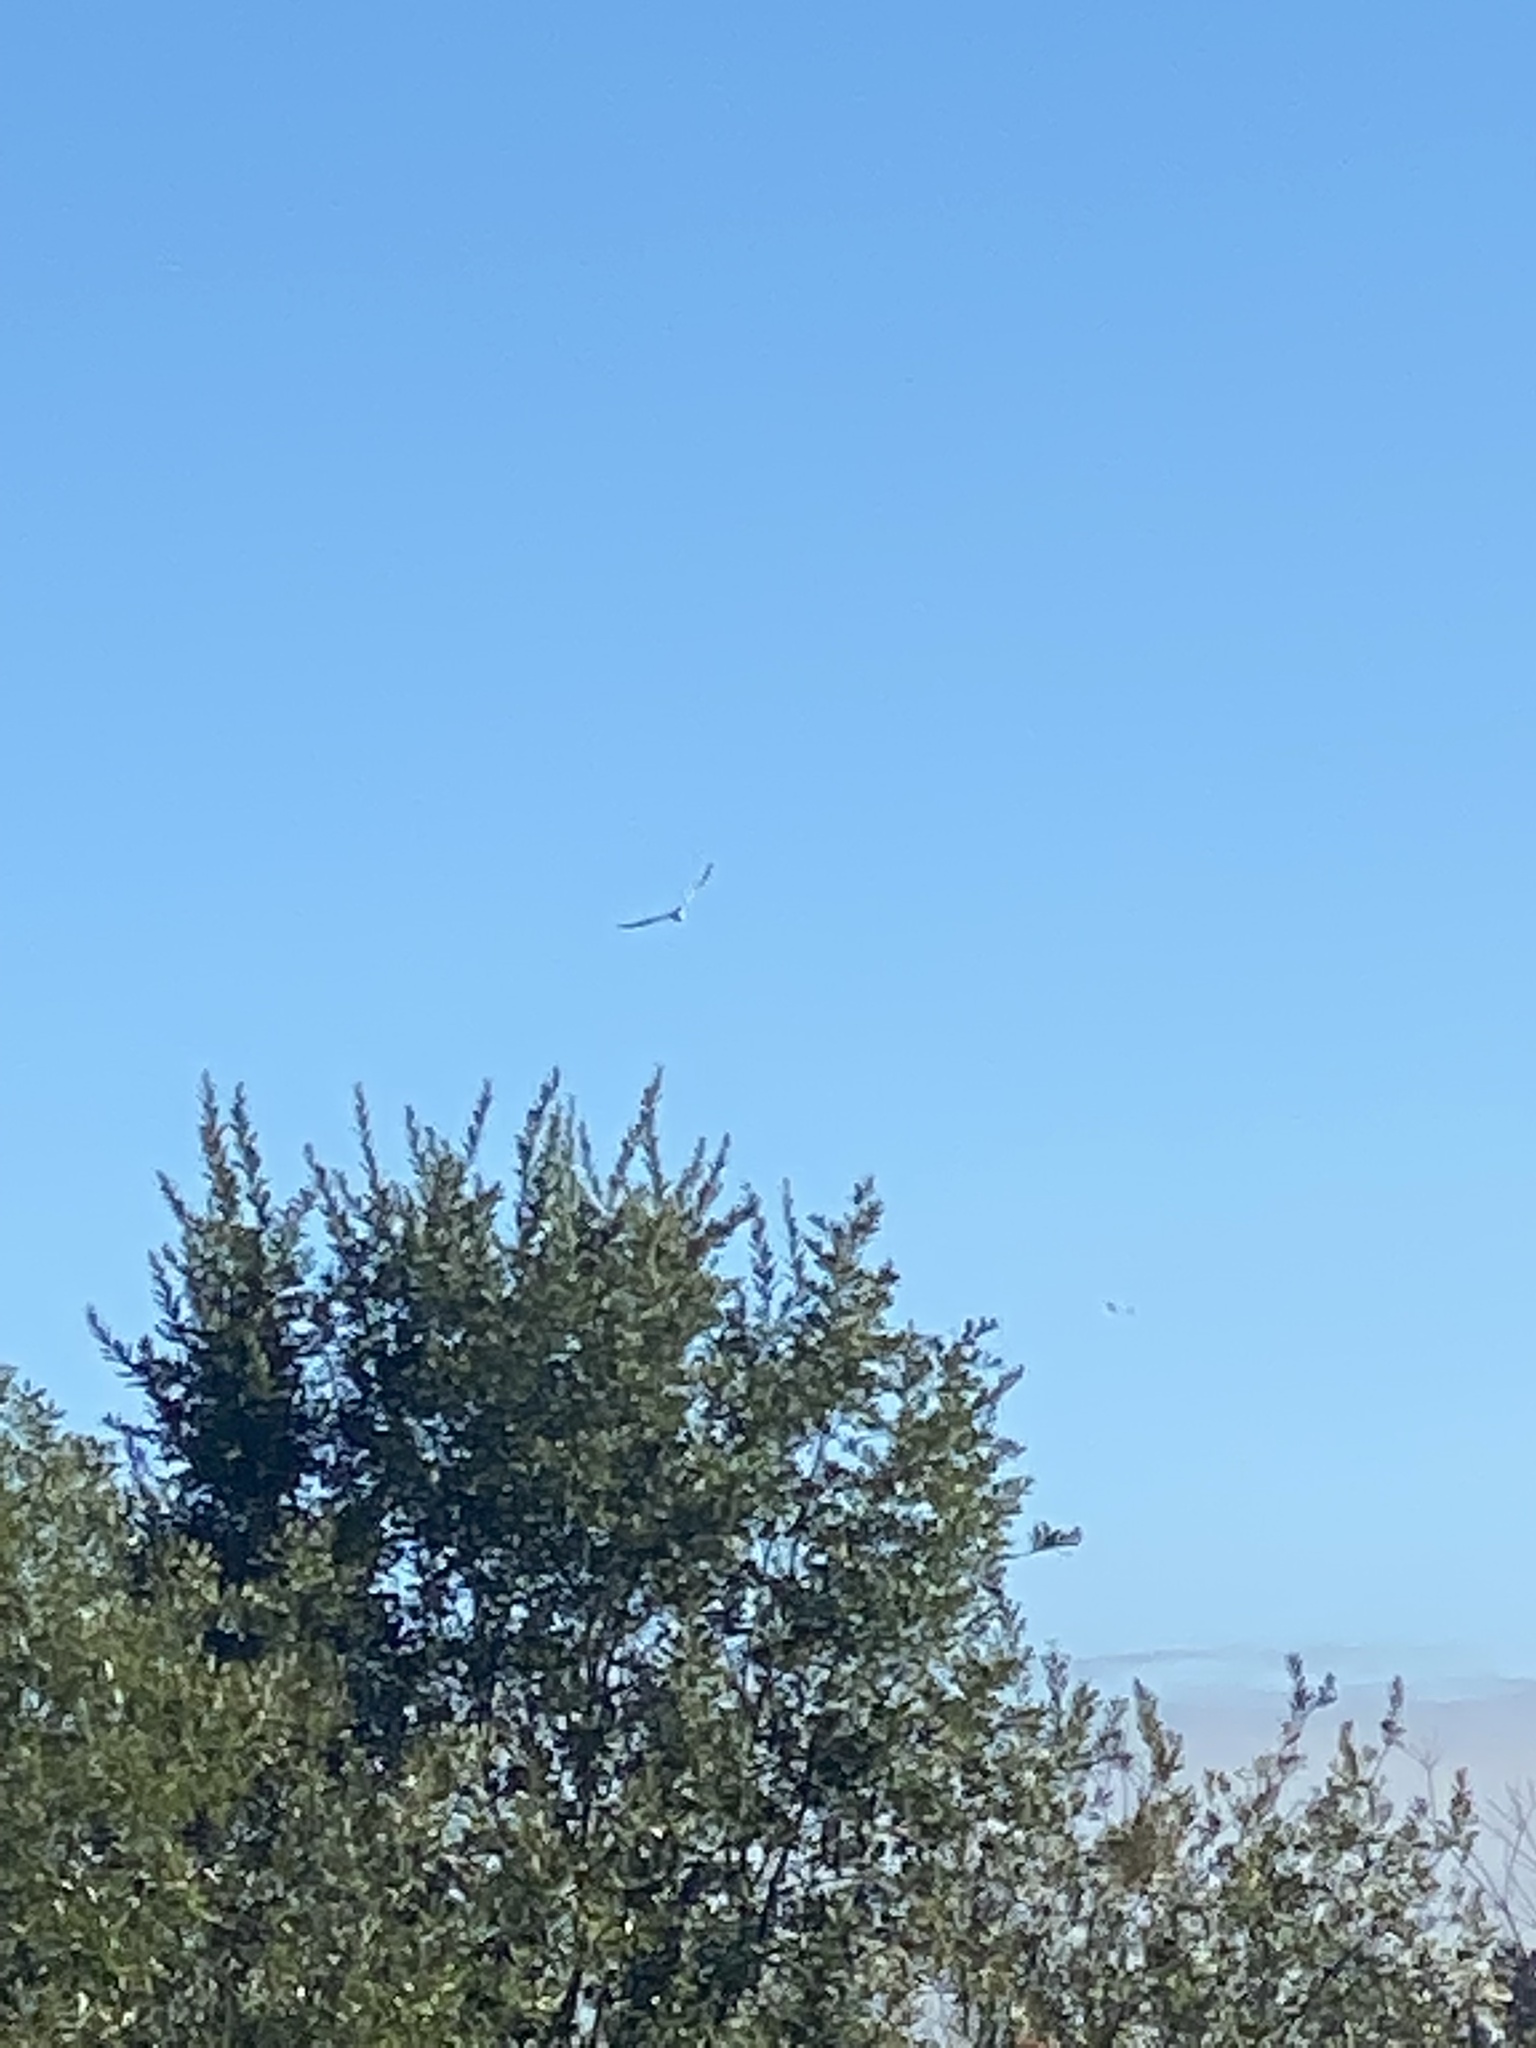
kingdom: Animalia
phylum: Chordata
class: Aves
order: Pelecaniformes
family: Pelecanidae
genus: Pelecanus
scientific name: Pelecanus erythrorhynchos
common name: American white pelican
